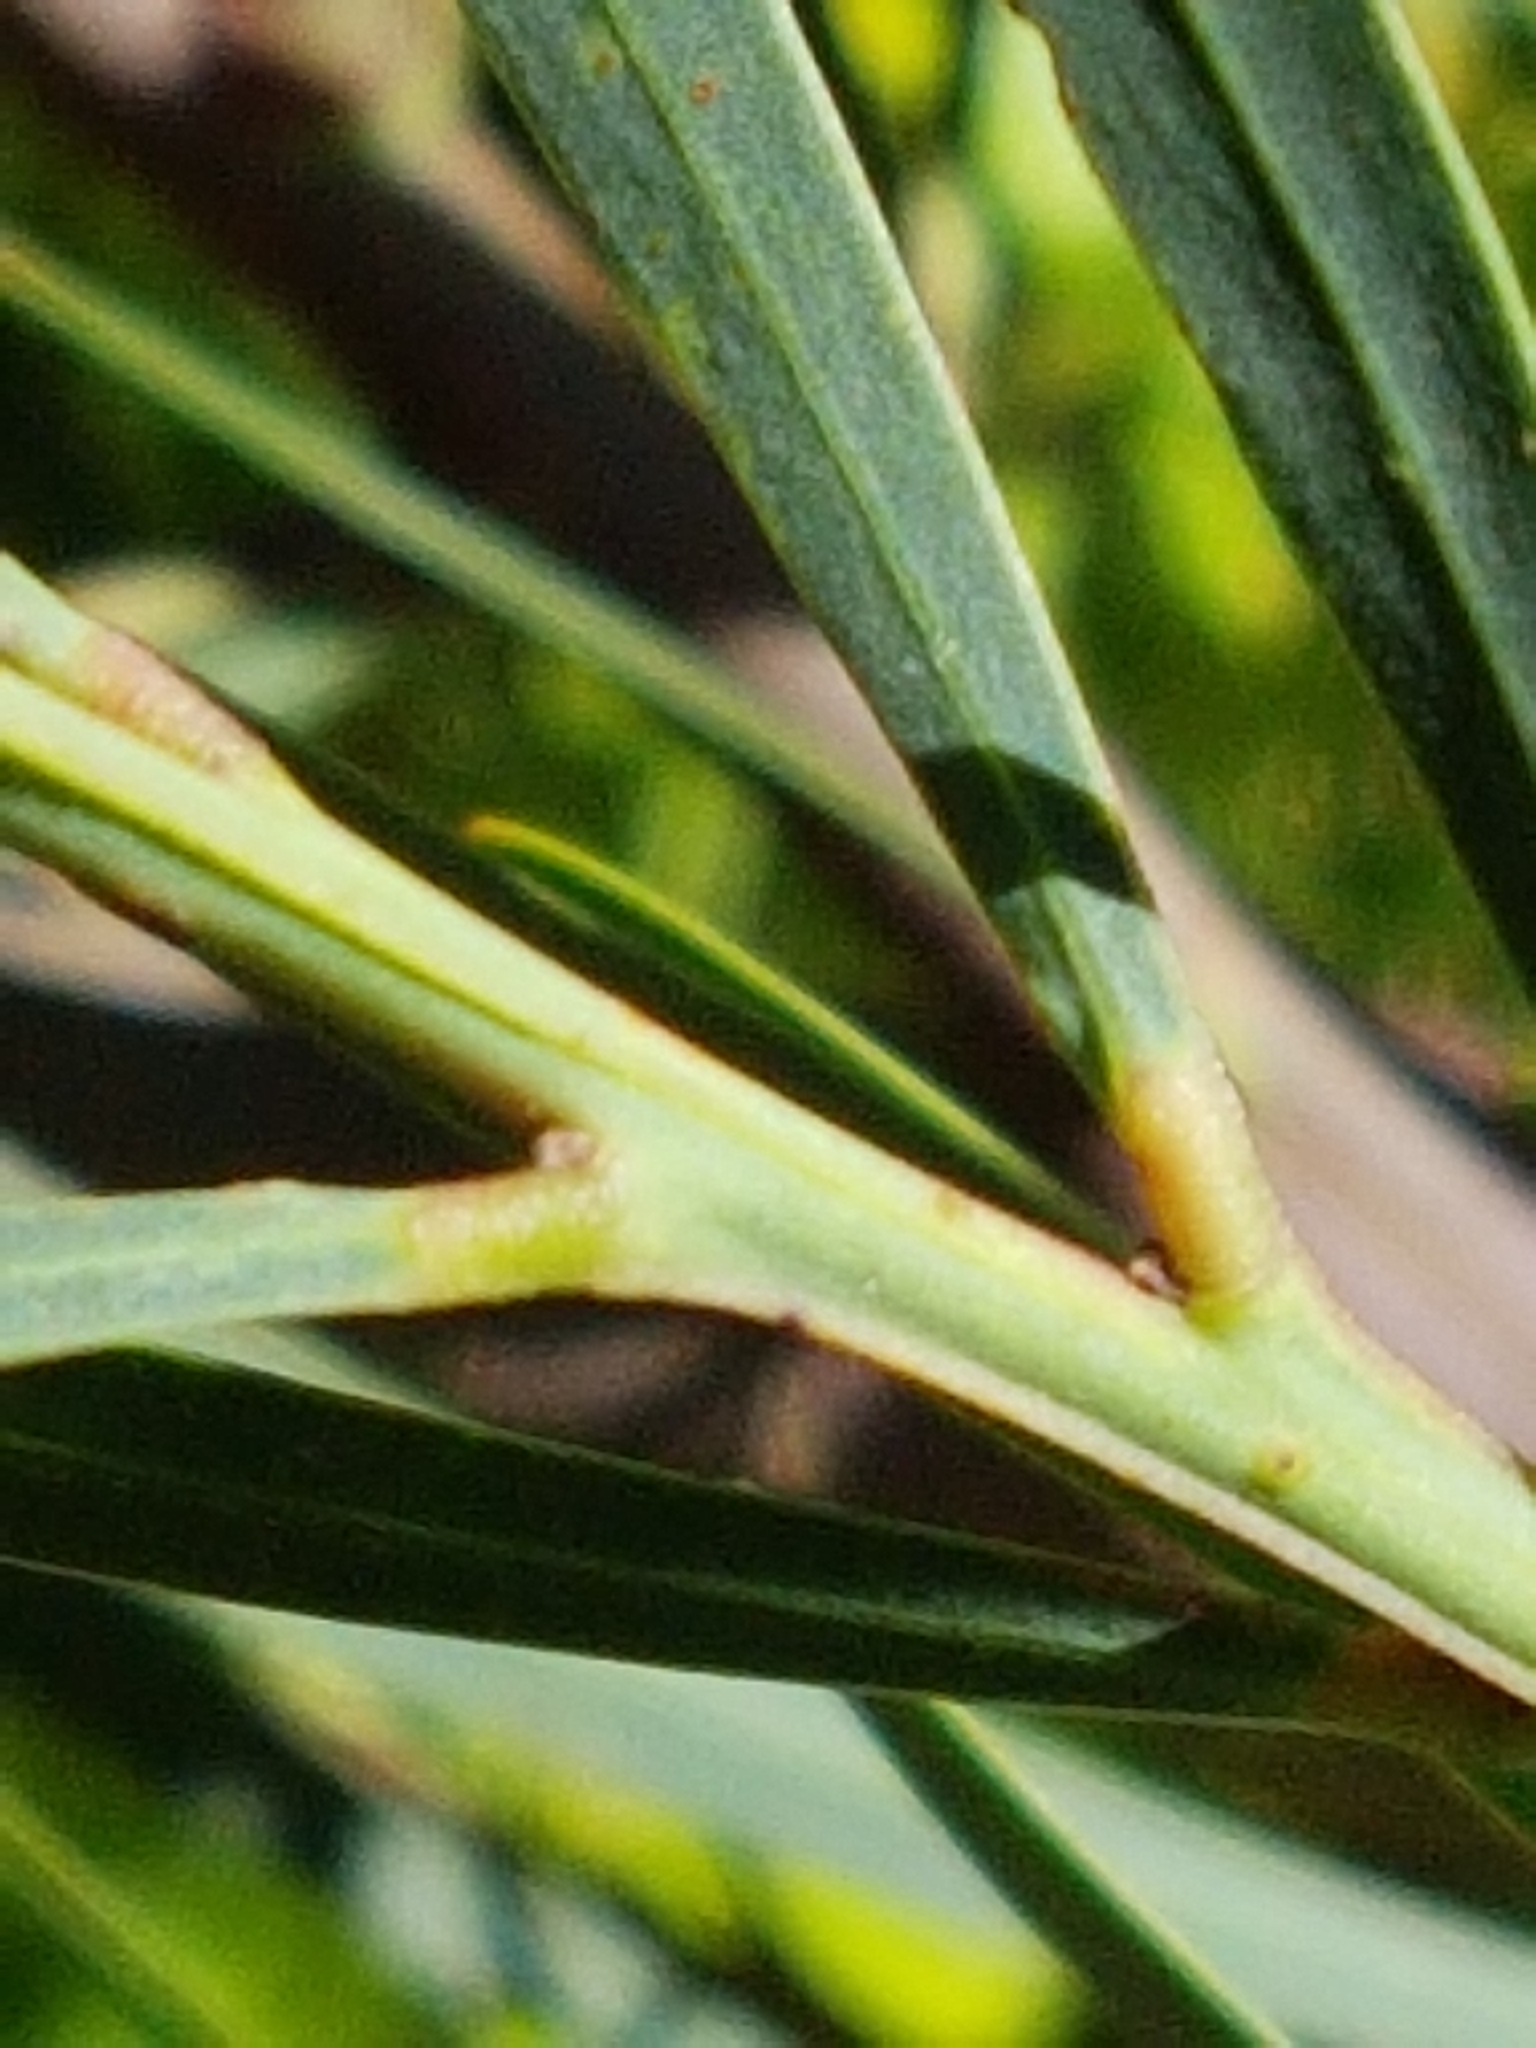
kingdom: Plantae
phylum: Tracheophyta
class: Magnoliopsida
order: Fabales
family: Fabaceae
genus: Acacia
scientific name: Acacia provincialis
